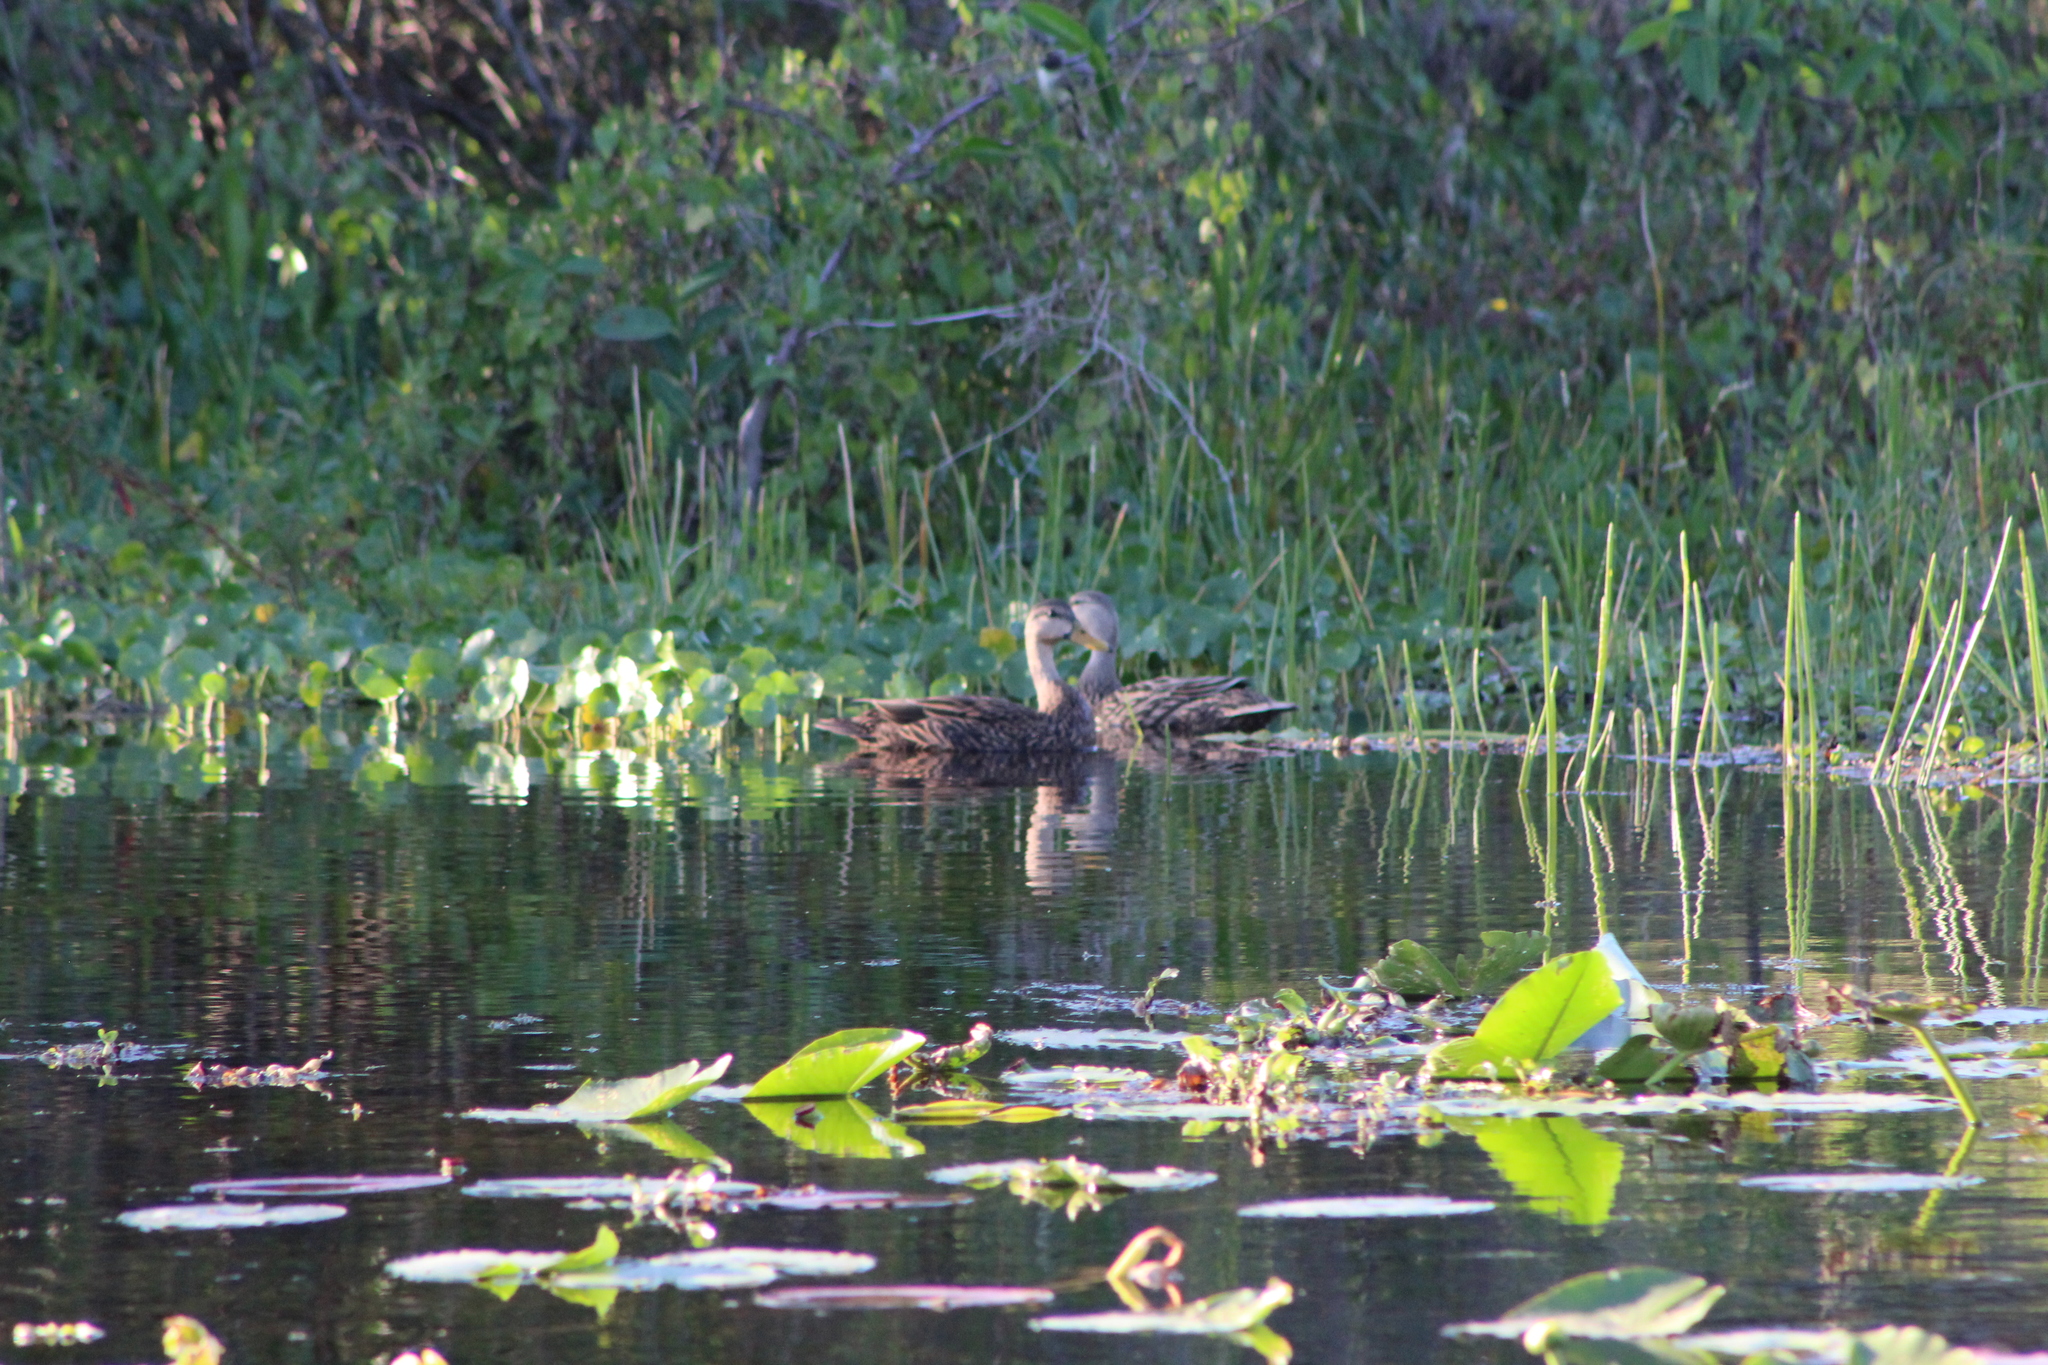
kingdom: Animalia
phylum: Chordata
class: Aves
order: Anseriformes
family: Anatidae
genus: Anas
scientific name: Anas fulvigula
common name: Mottled duck
